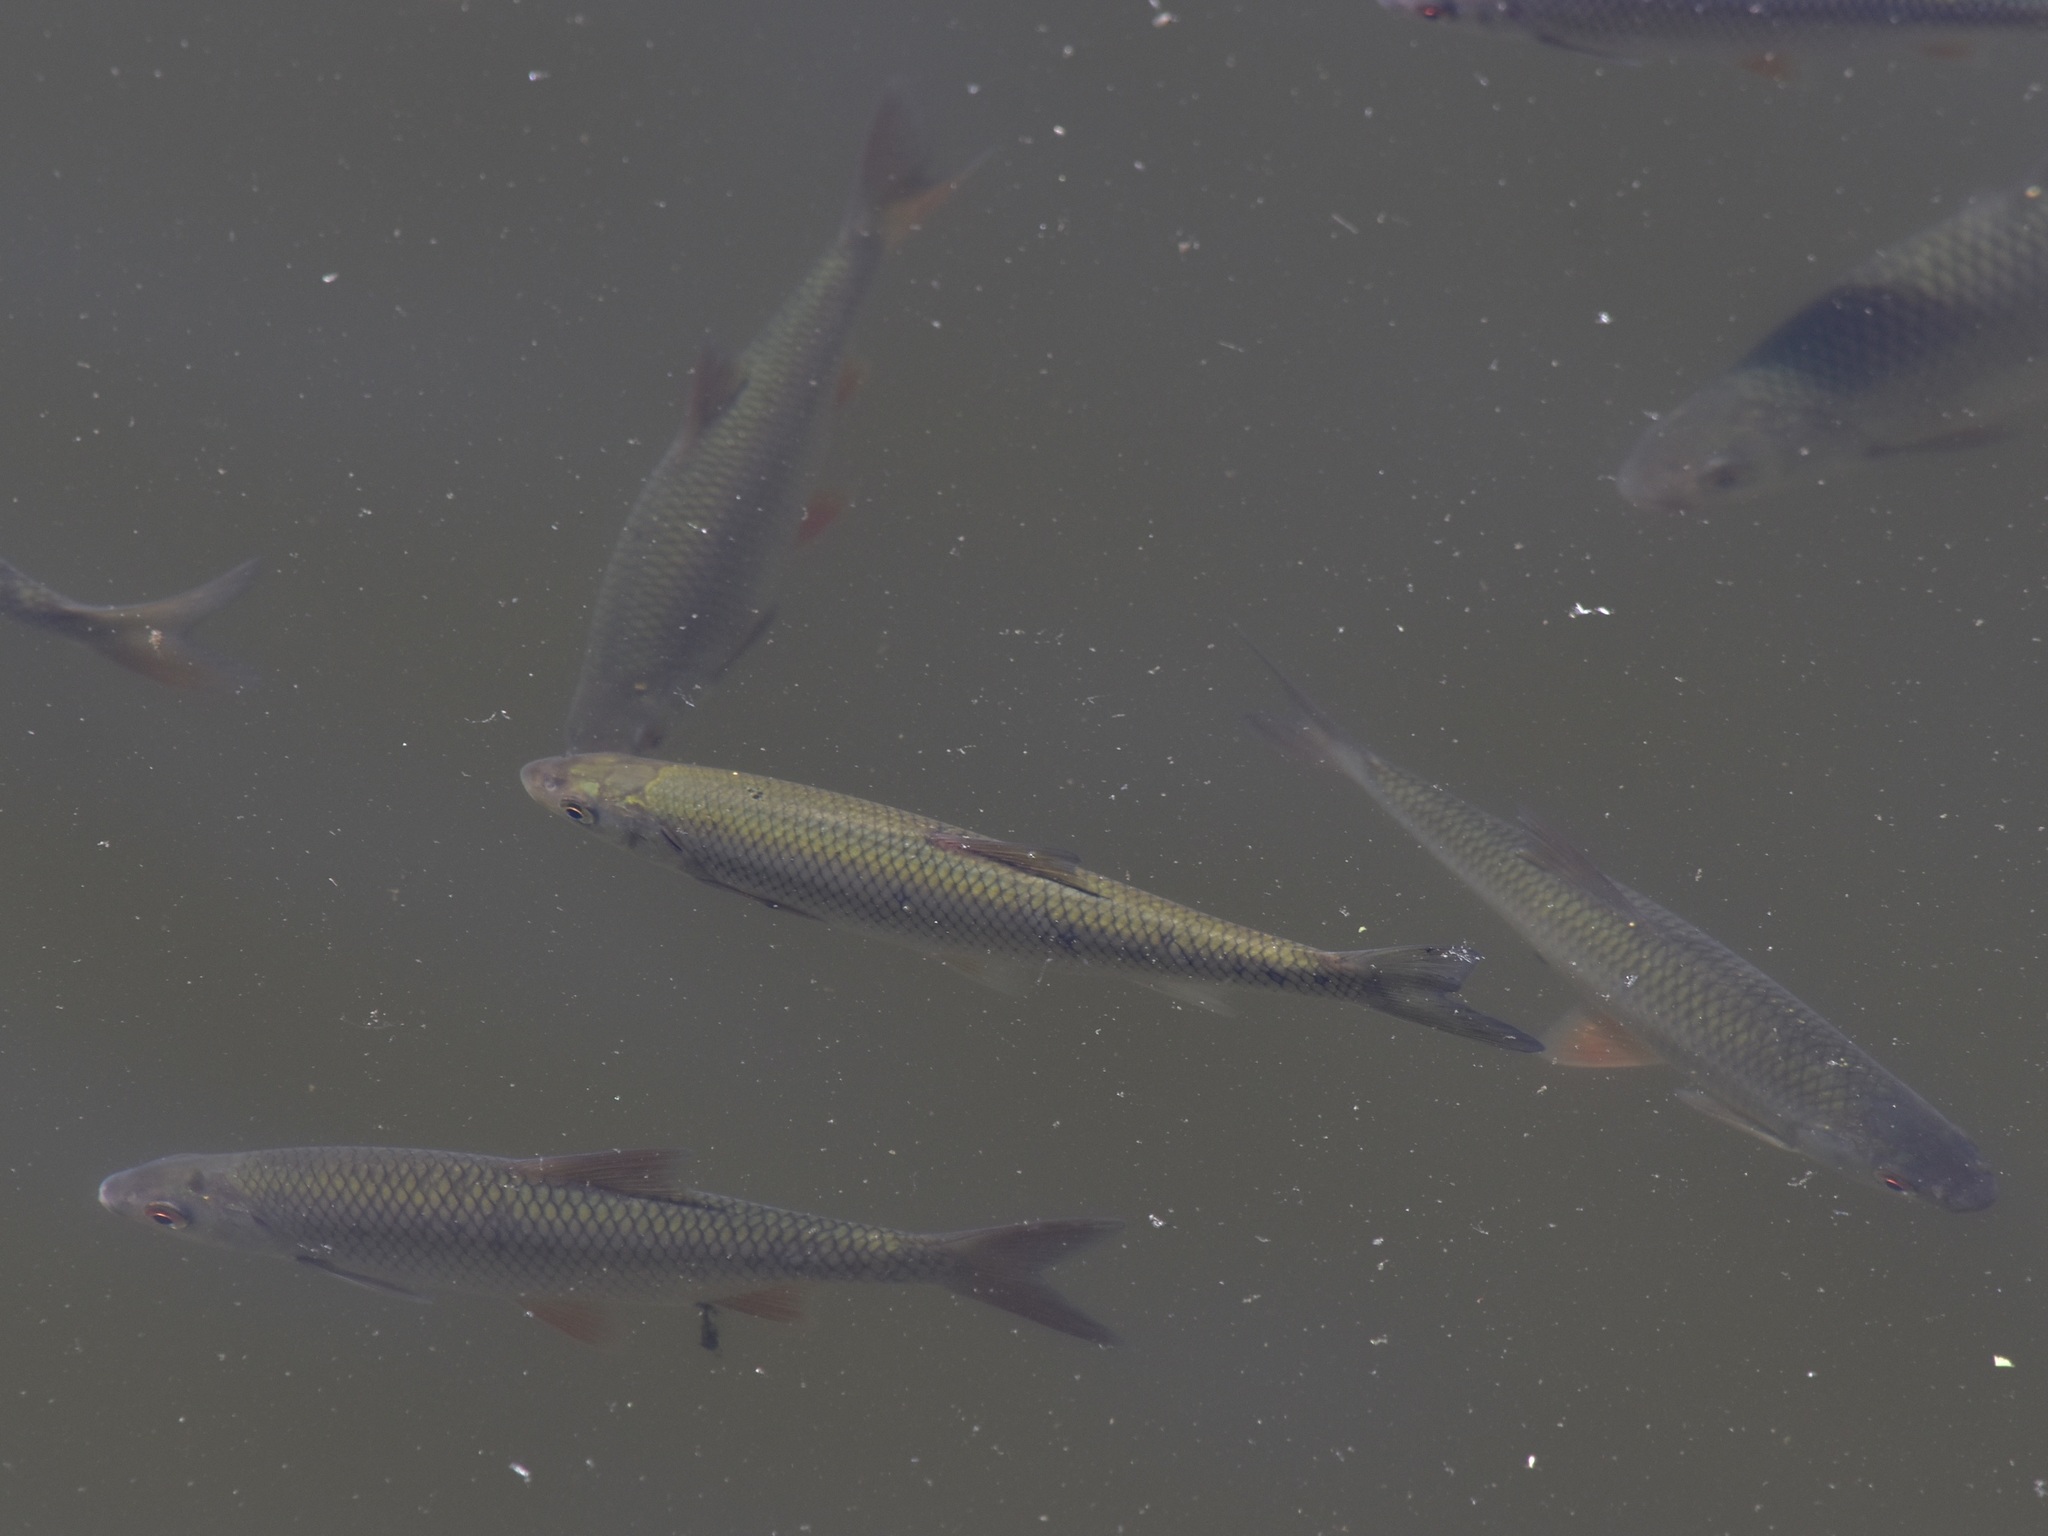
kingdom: Animalia
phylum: Chordata
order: Cypriniformes
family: Cyprinidae
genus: Squalius
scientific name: Squalius cephalus
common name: Chub
